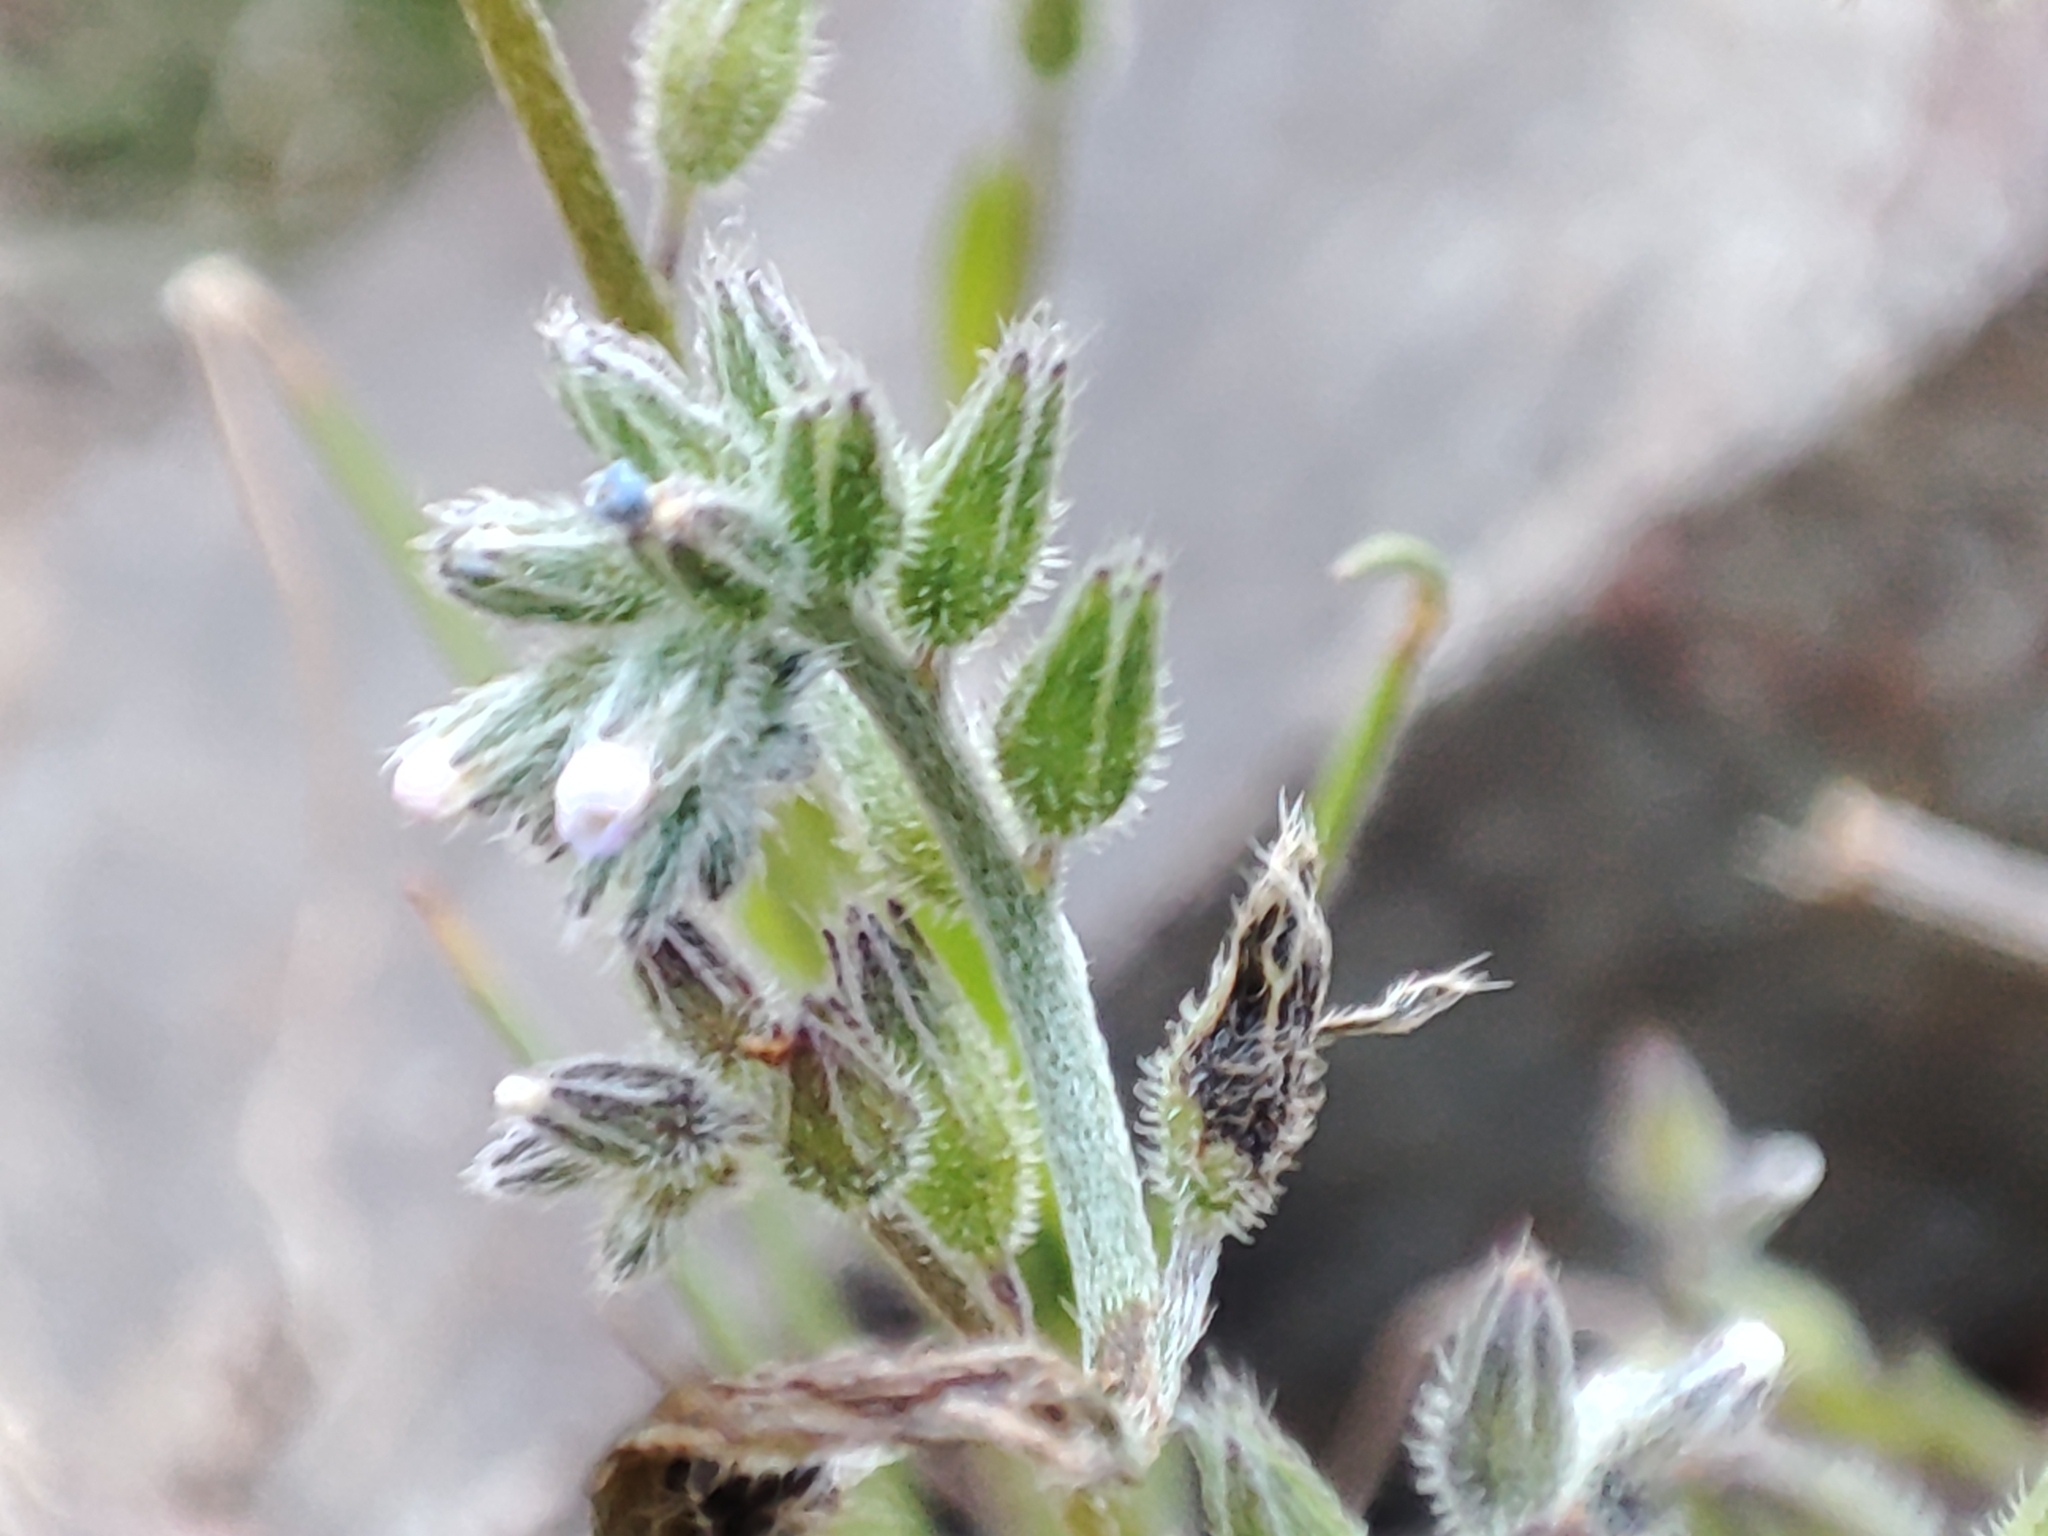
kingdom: Plantae
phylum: Tracheophyta
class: Magnoliopsida
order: Boraginales
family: Boraginaceae
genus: Myosotis
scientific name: Myosotis discolor
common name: Changing forget-me-not
